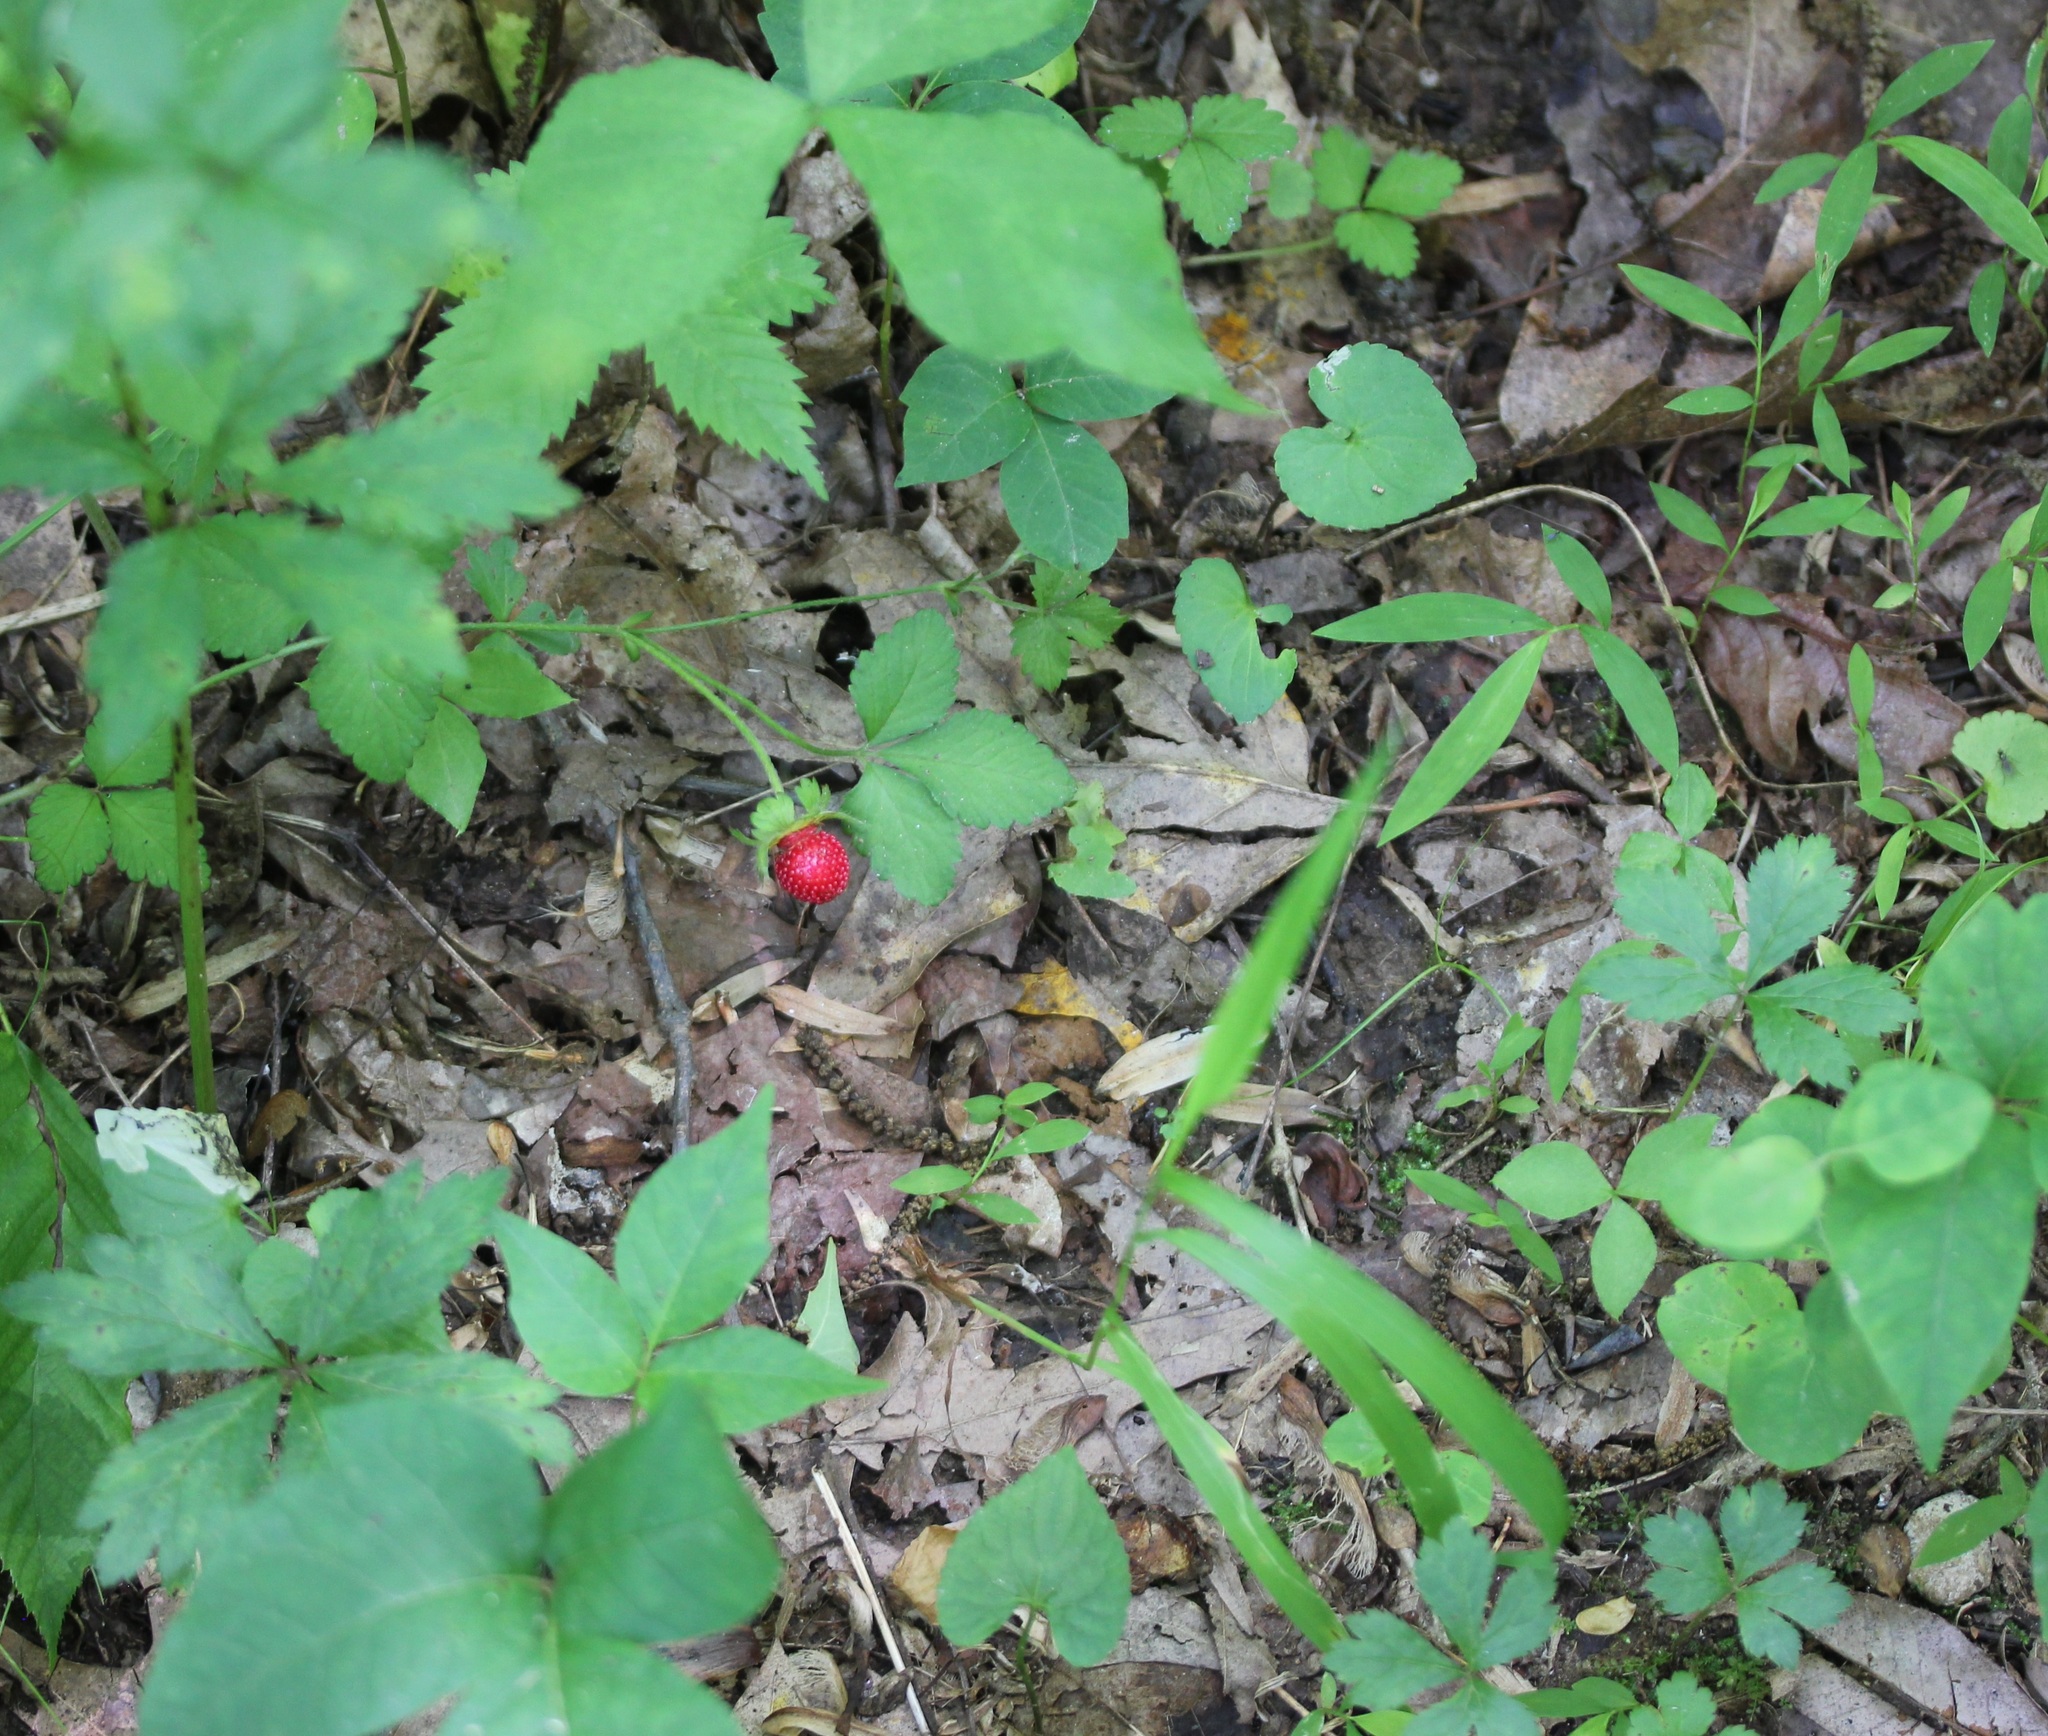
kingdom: Plantae
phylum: Tracheophyta
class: Magnoliopsida
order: Rosales
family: Rosaceae
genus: Potentilla
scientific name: Potentilla indica
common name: Yellow-flowered strawberry
